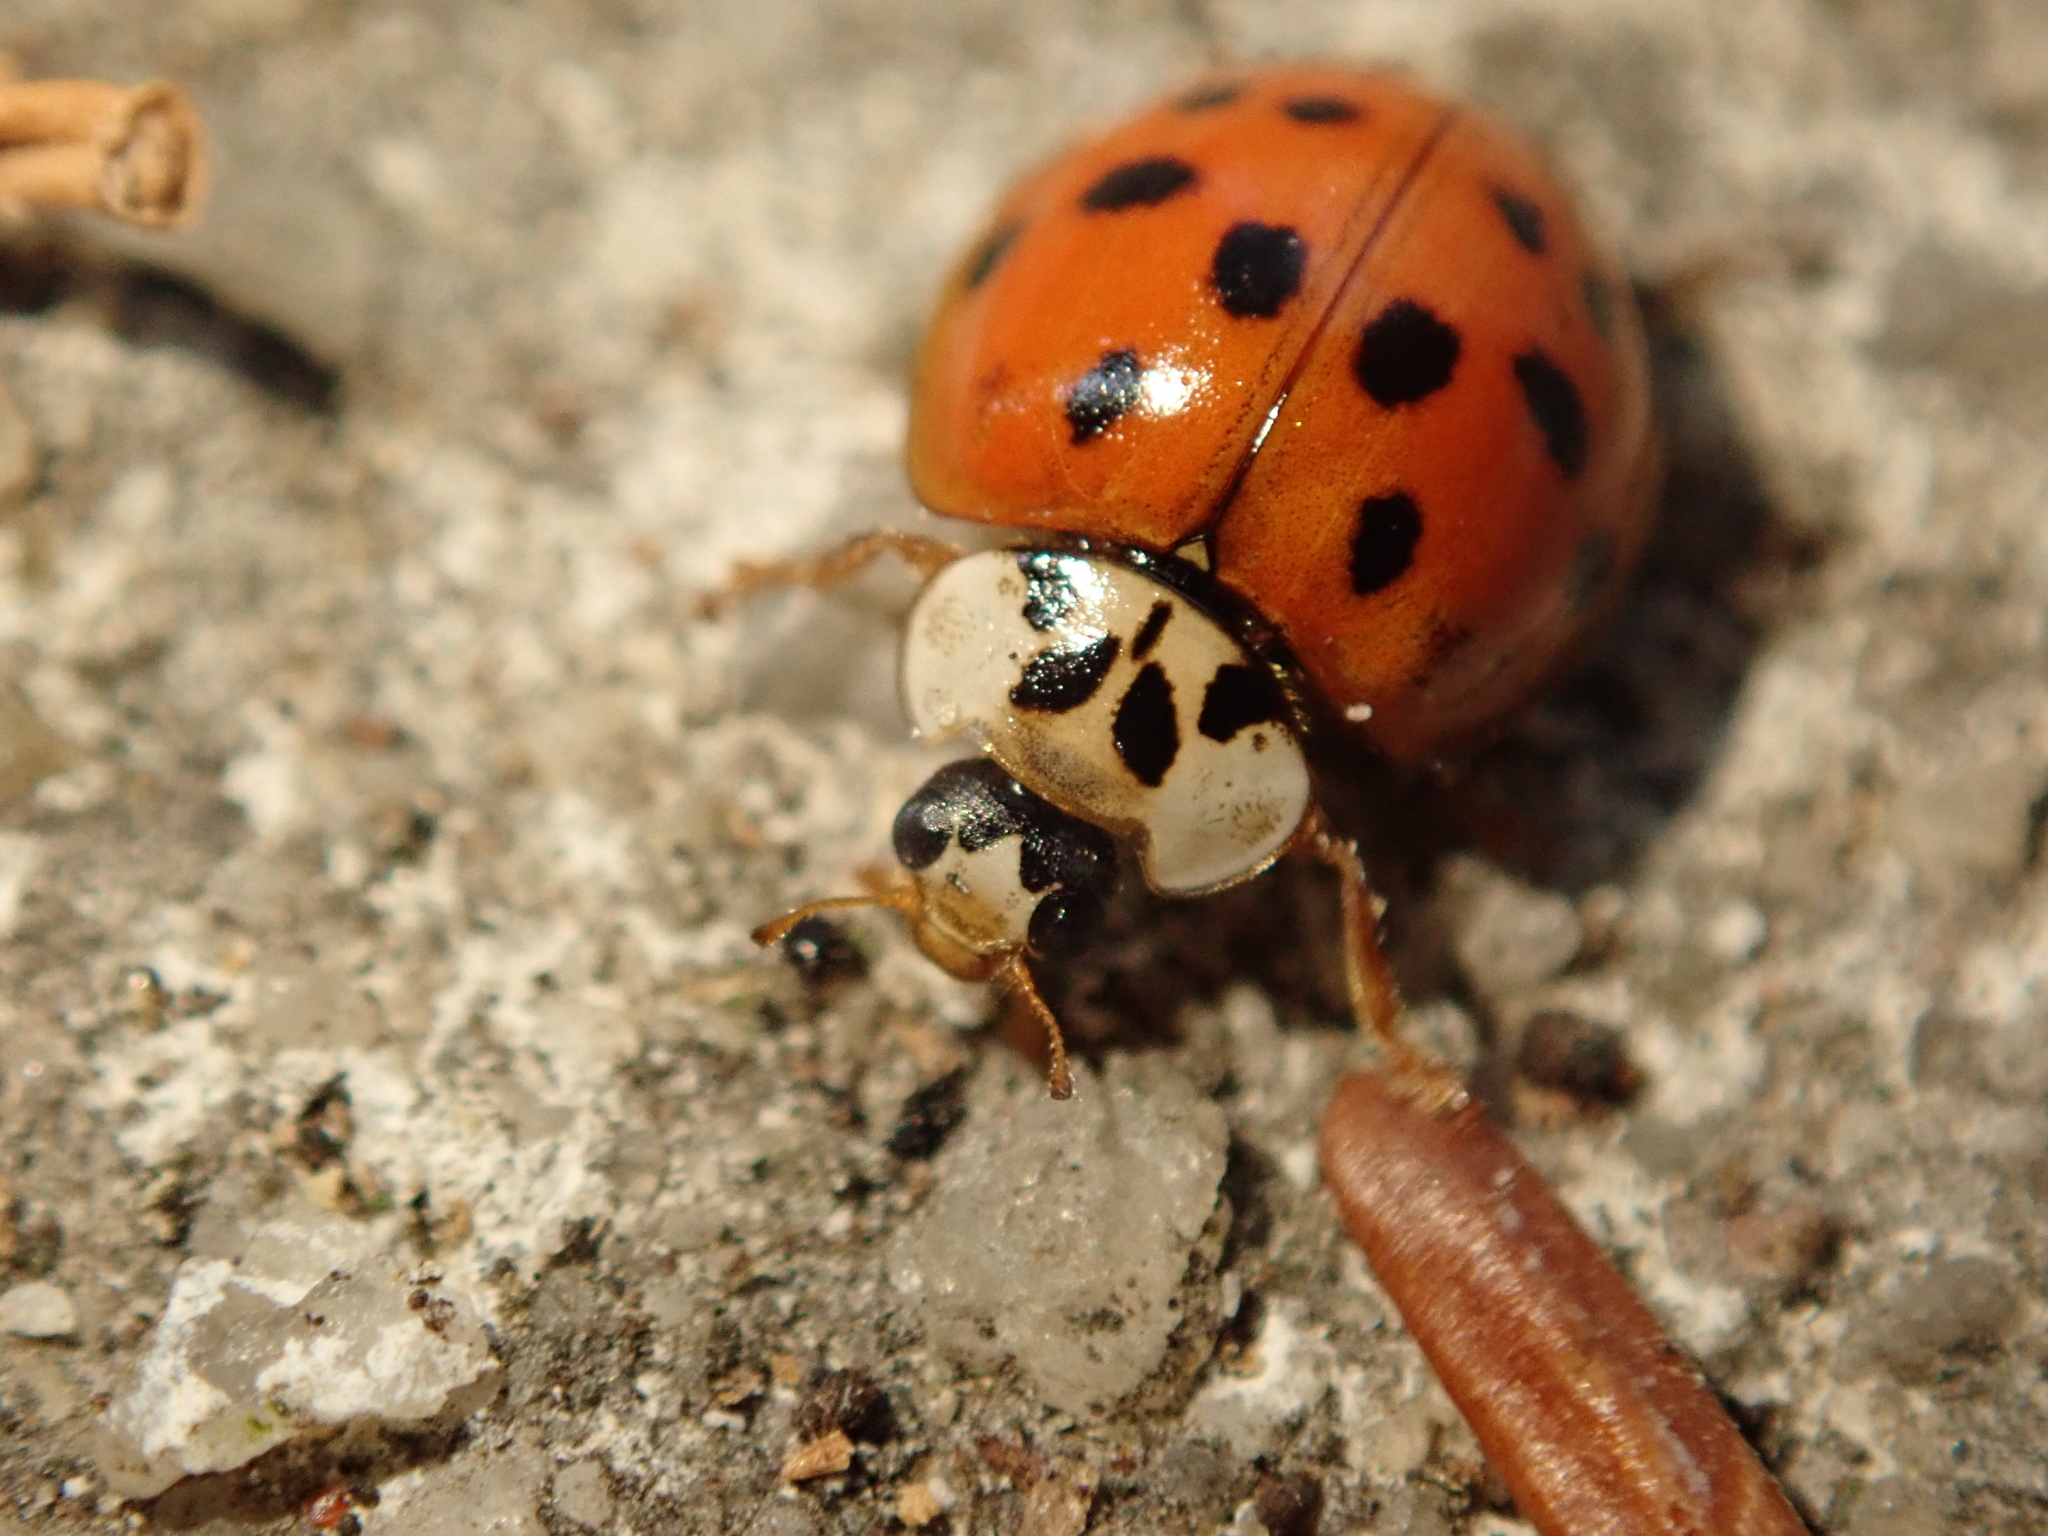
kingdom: Animalia
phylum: Arthropoda
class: Insecta
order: Coleoptera
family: Coccinellidae
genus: Harmonia
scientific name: Harmonia axyridis
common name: Harlequin ladybird
